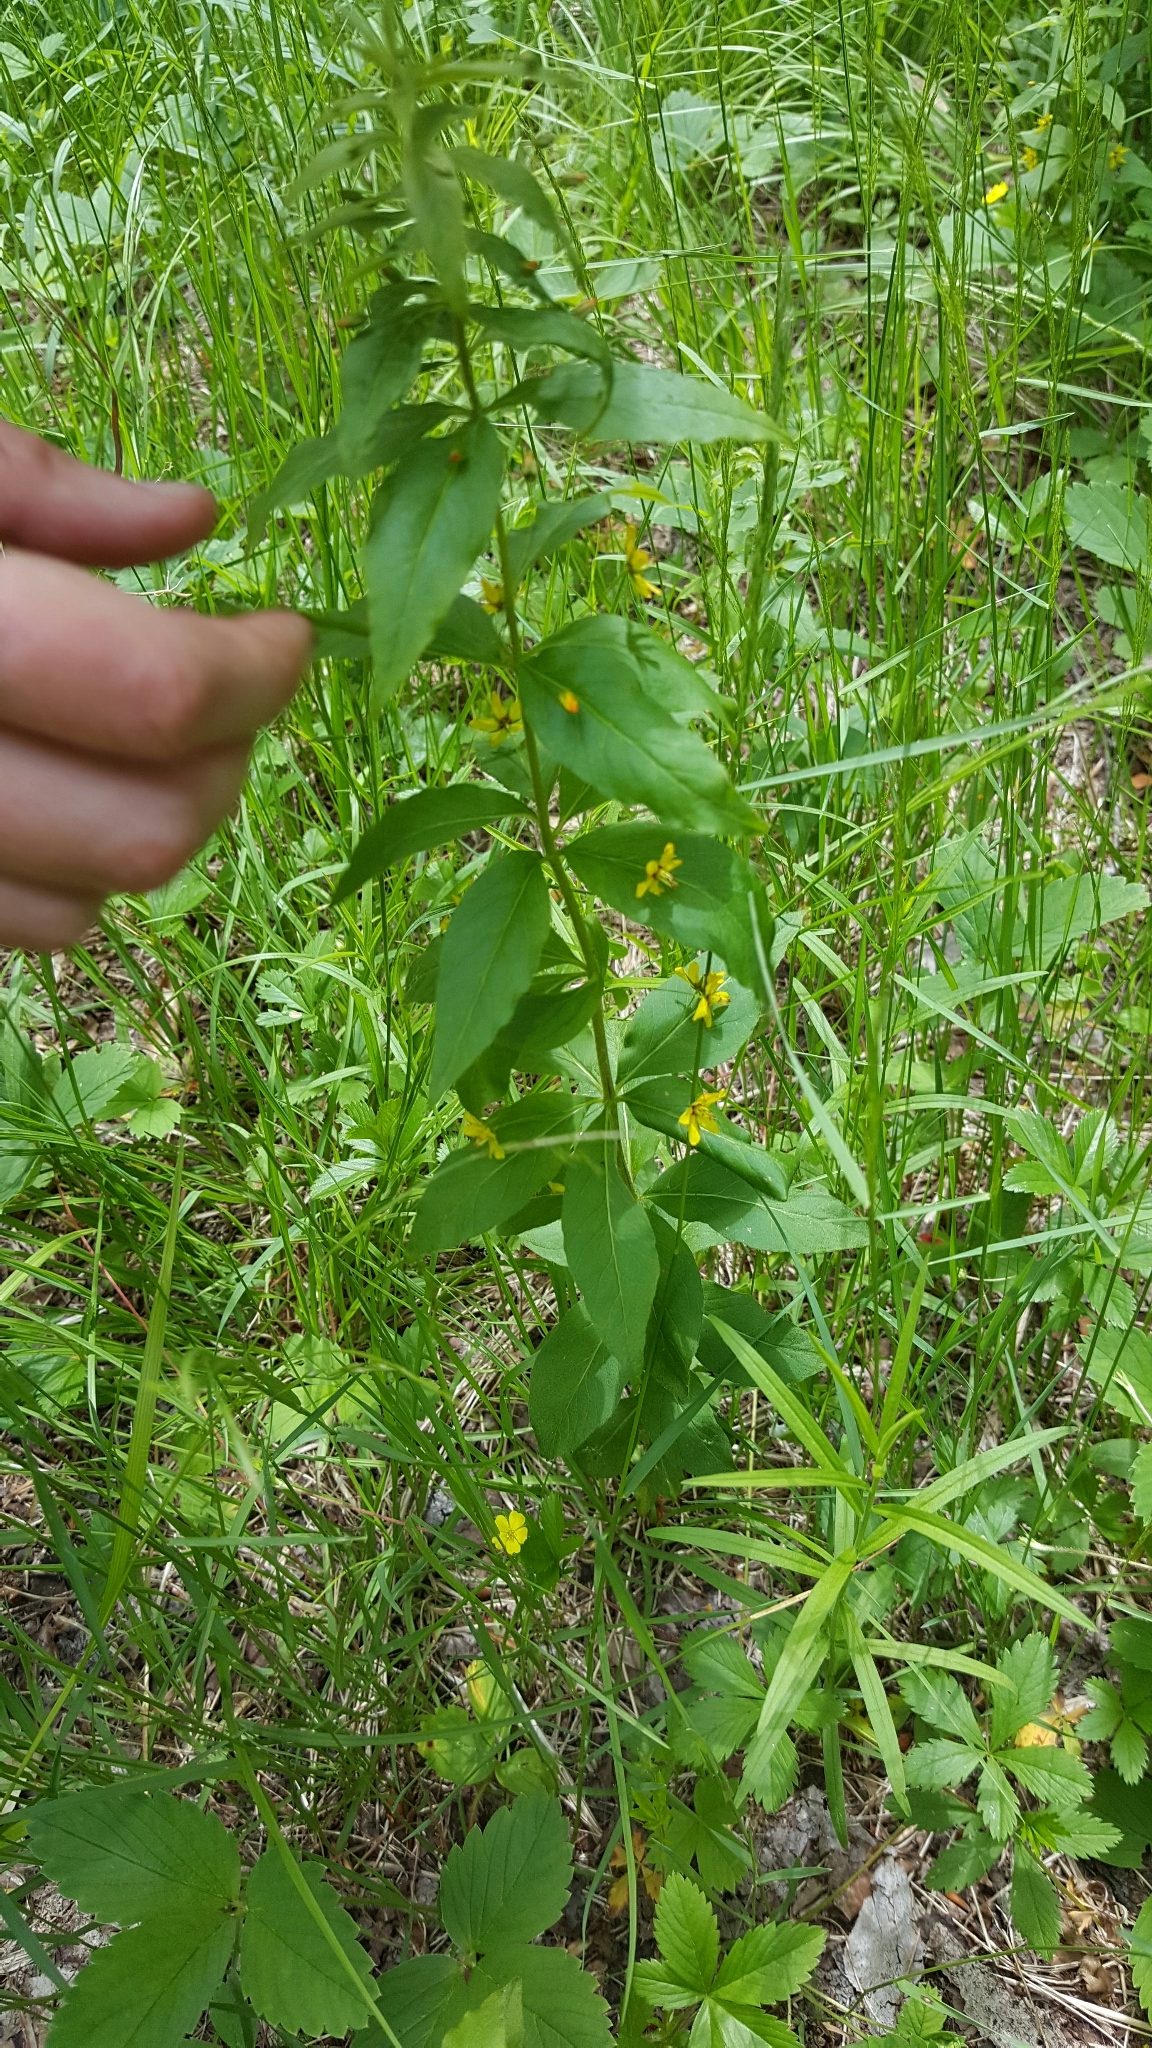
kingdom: Plantae
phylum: Tracheophyta
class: Magnoliopsida
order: Ericales
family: Primulaceae
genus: Lysimachia
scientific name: Lysimachia quadrifolia
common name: Whorled loosestrife
